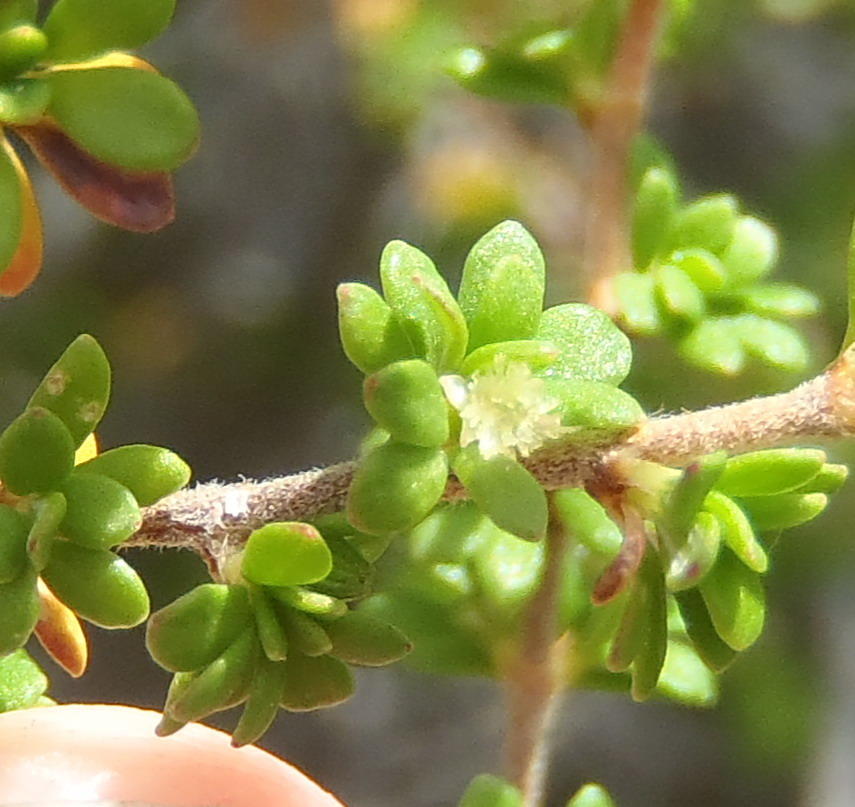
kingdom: Plantae
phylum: Tracheophyta
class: Magnoliopsida
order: Rosales
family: Rosaceae
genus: Cliffortia
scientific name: Cliffortia serpyllifolia
